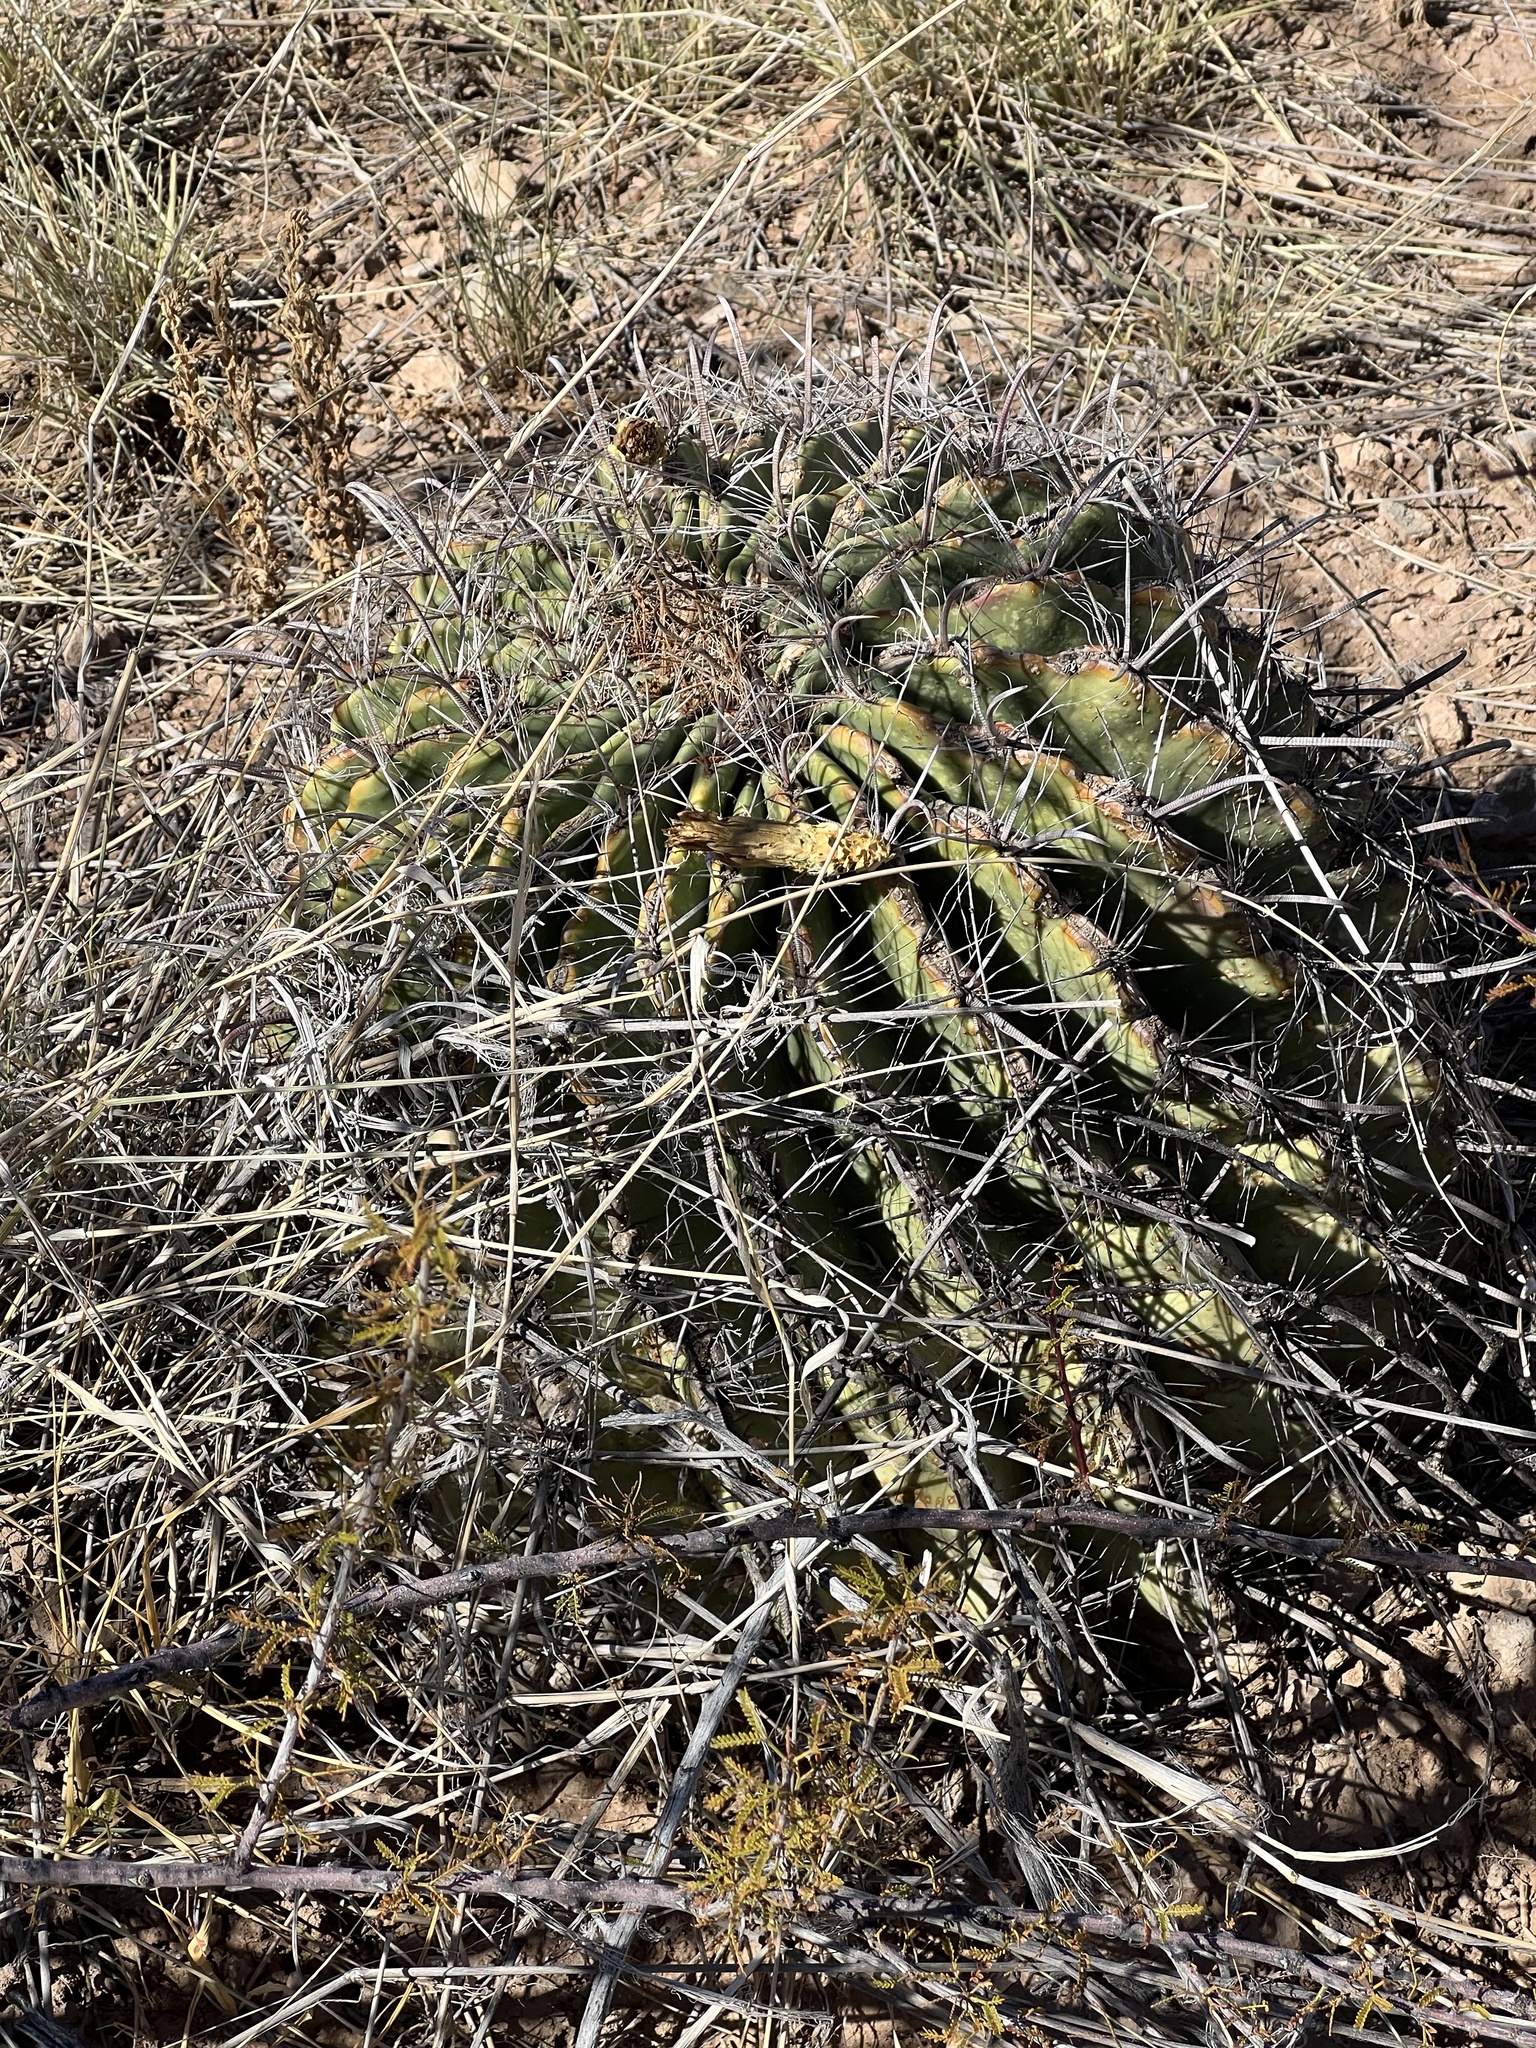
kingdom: Plantae
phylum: Tracheophyta
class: Magnoliopsida
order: Caryophyllales
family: Cactaceae
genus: Ferocactus
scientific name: Ferocactus wislizeni
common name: Candy barrel cactus
